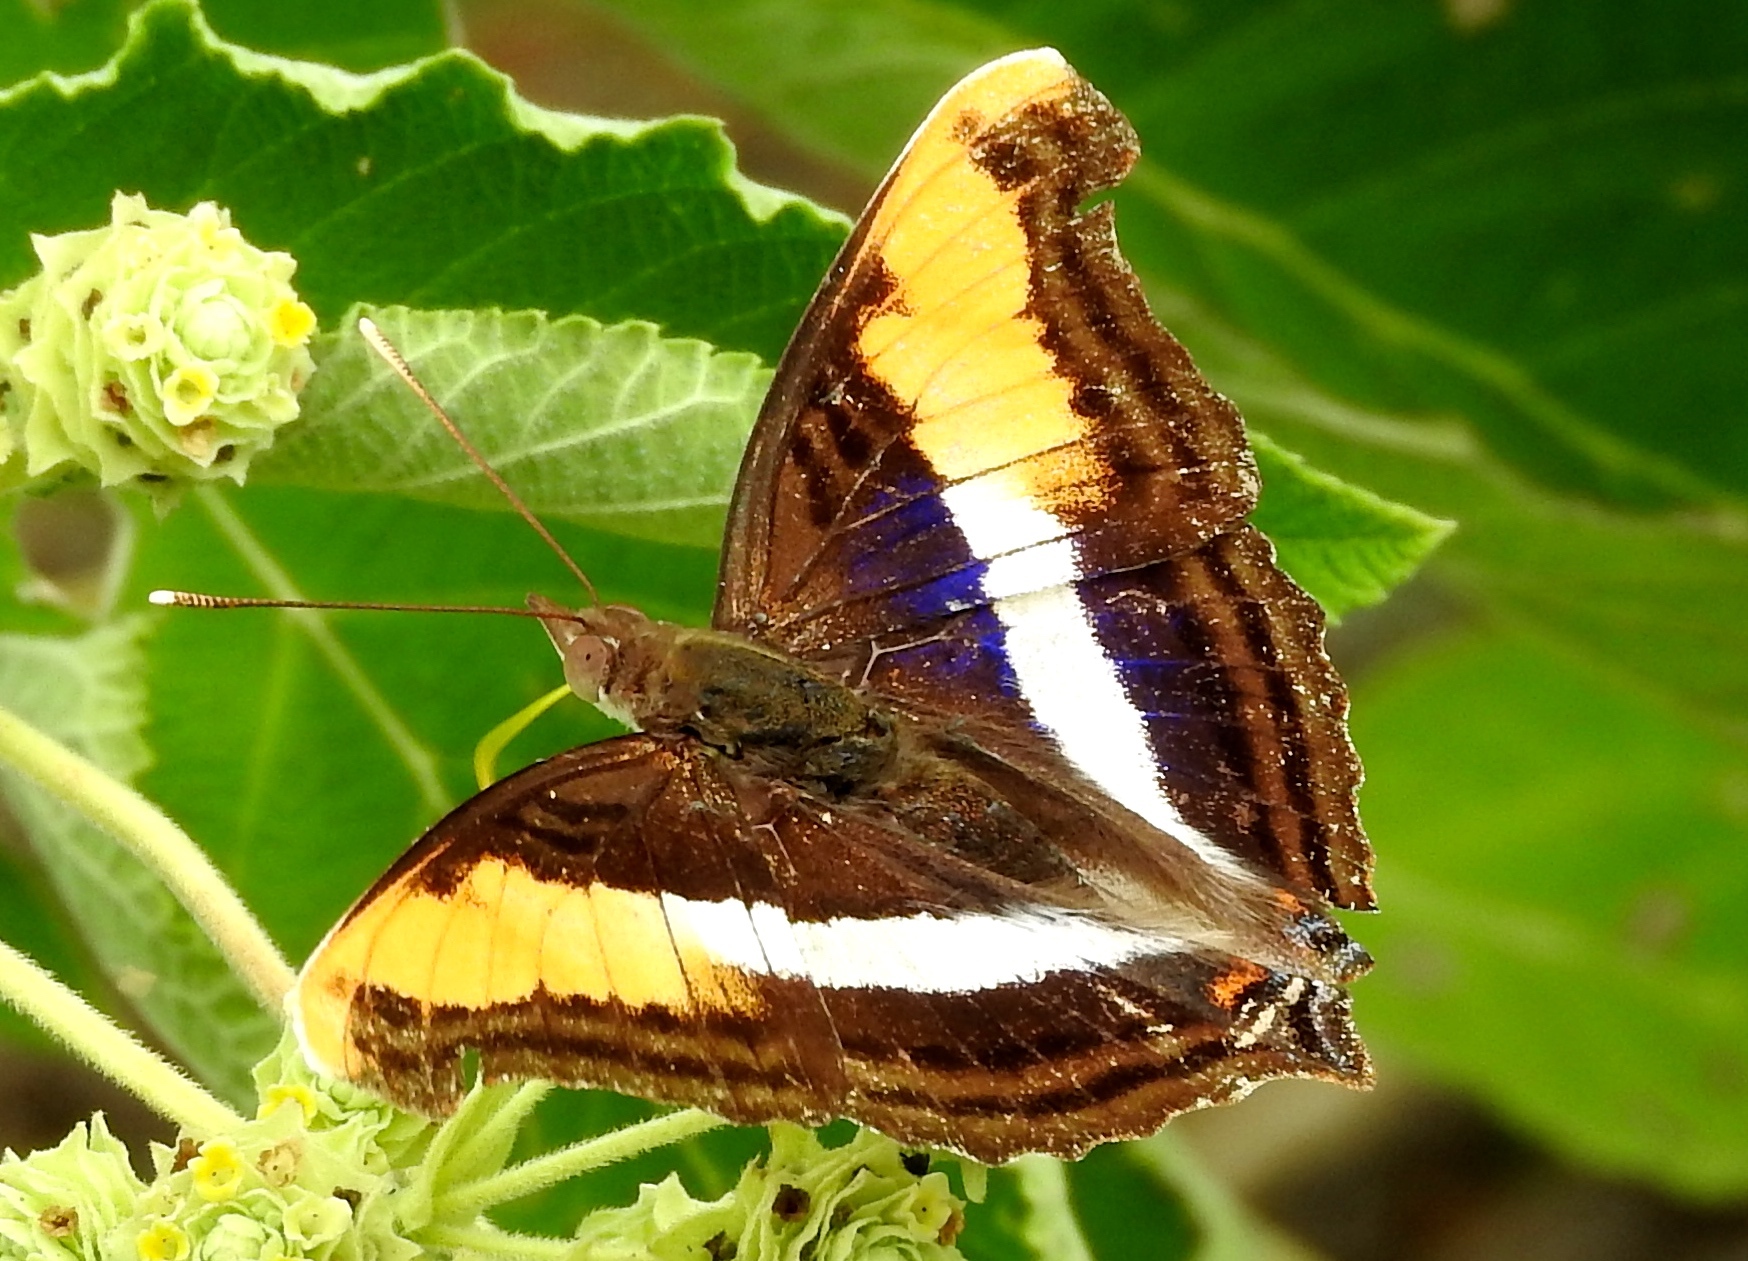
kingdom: Animalia
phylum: Arthropoda
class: Insecta
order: Lepidoptera
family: Nymphalidae
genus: Doxocopa
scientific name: Doxocopa laure
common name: Silver emperor
